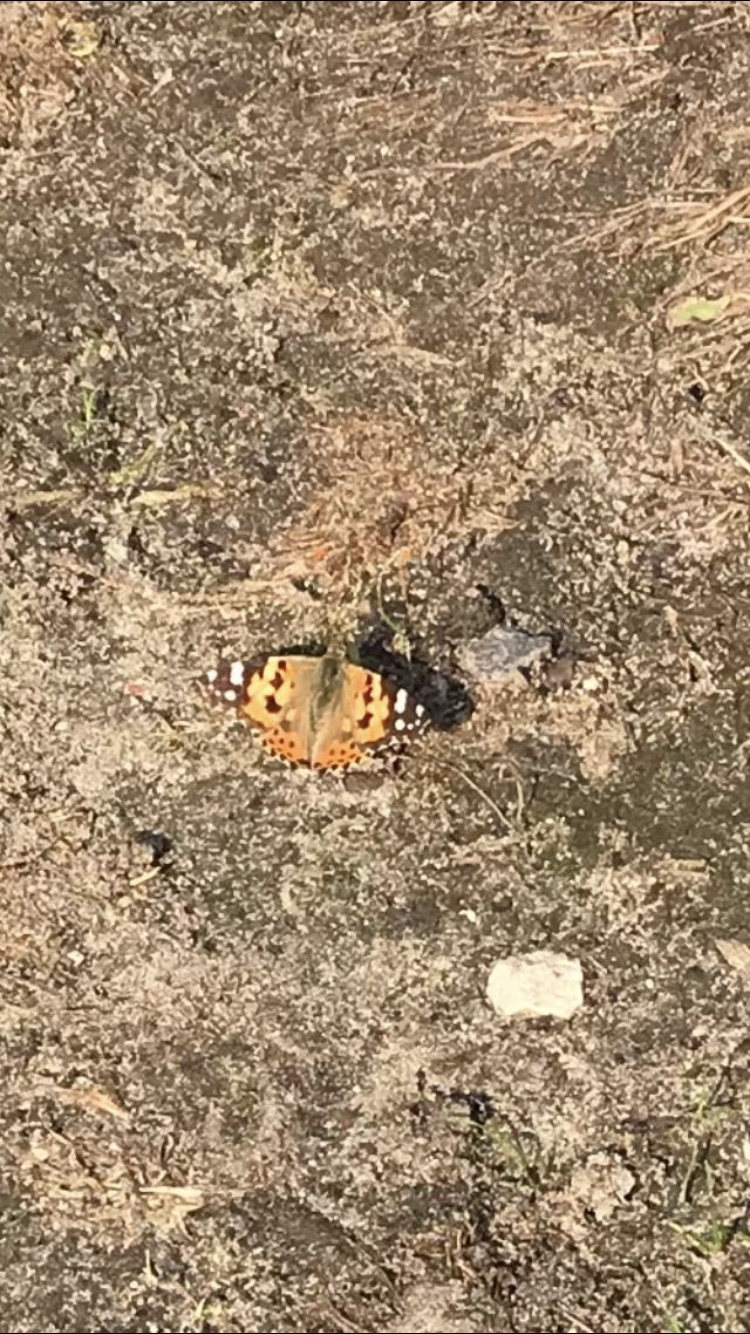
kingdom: Animalia
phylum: Arthropoda
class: Insecta
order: Lepidoptera
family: Nymphalidae
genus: Vanessa
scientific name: Vanessa cardui
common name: Painted lady
